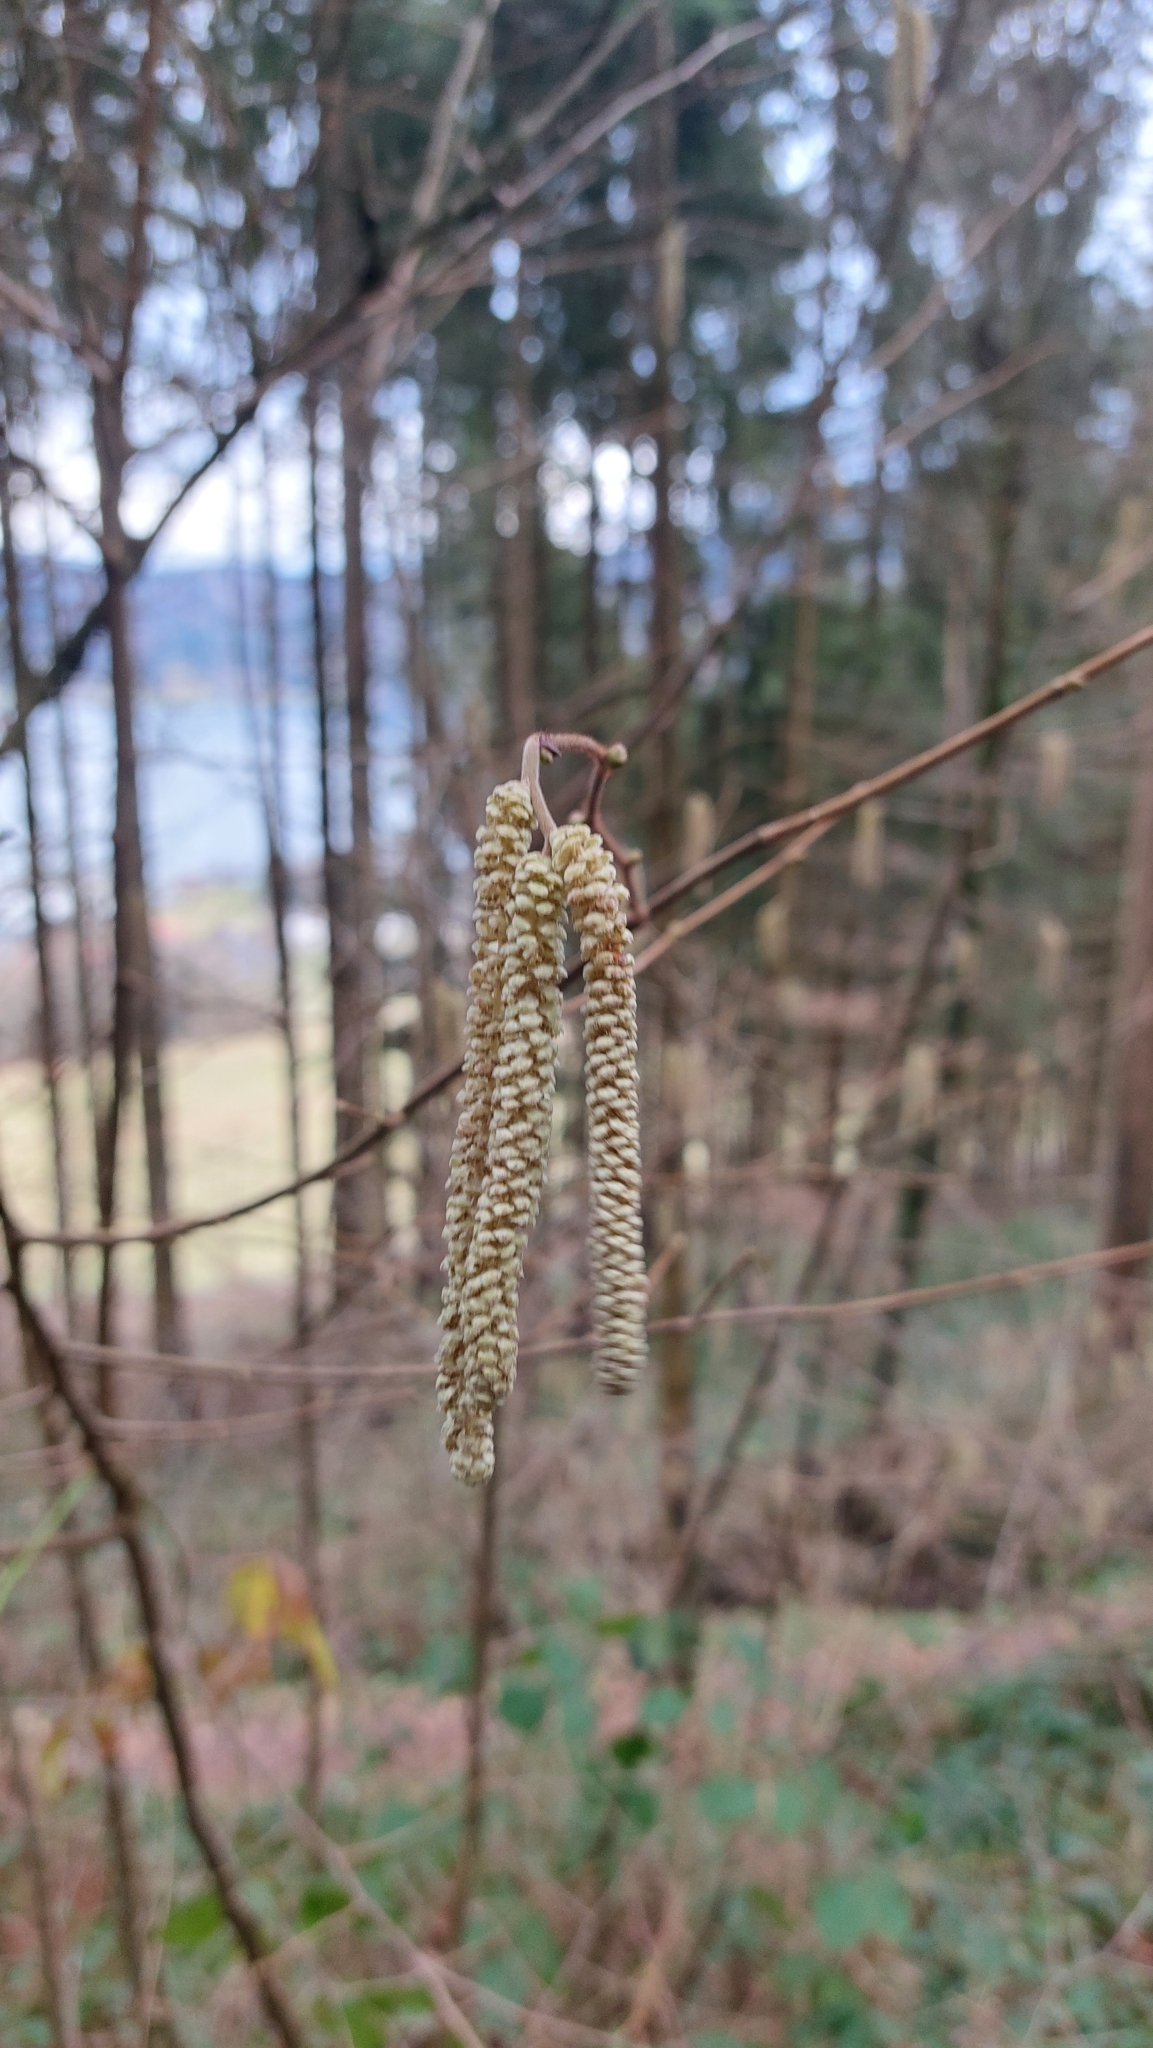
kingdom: Plantae
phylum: Tracheophyta
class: Magnoliopsida
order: Fagales
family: Betulaceae
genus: Corylus
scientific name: Corylus avellana
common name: European hazel
